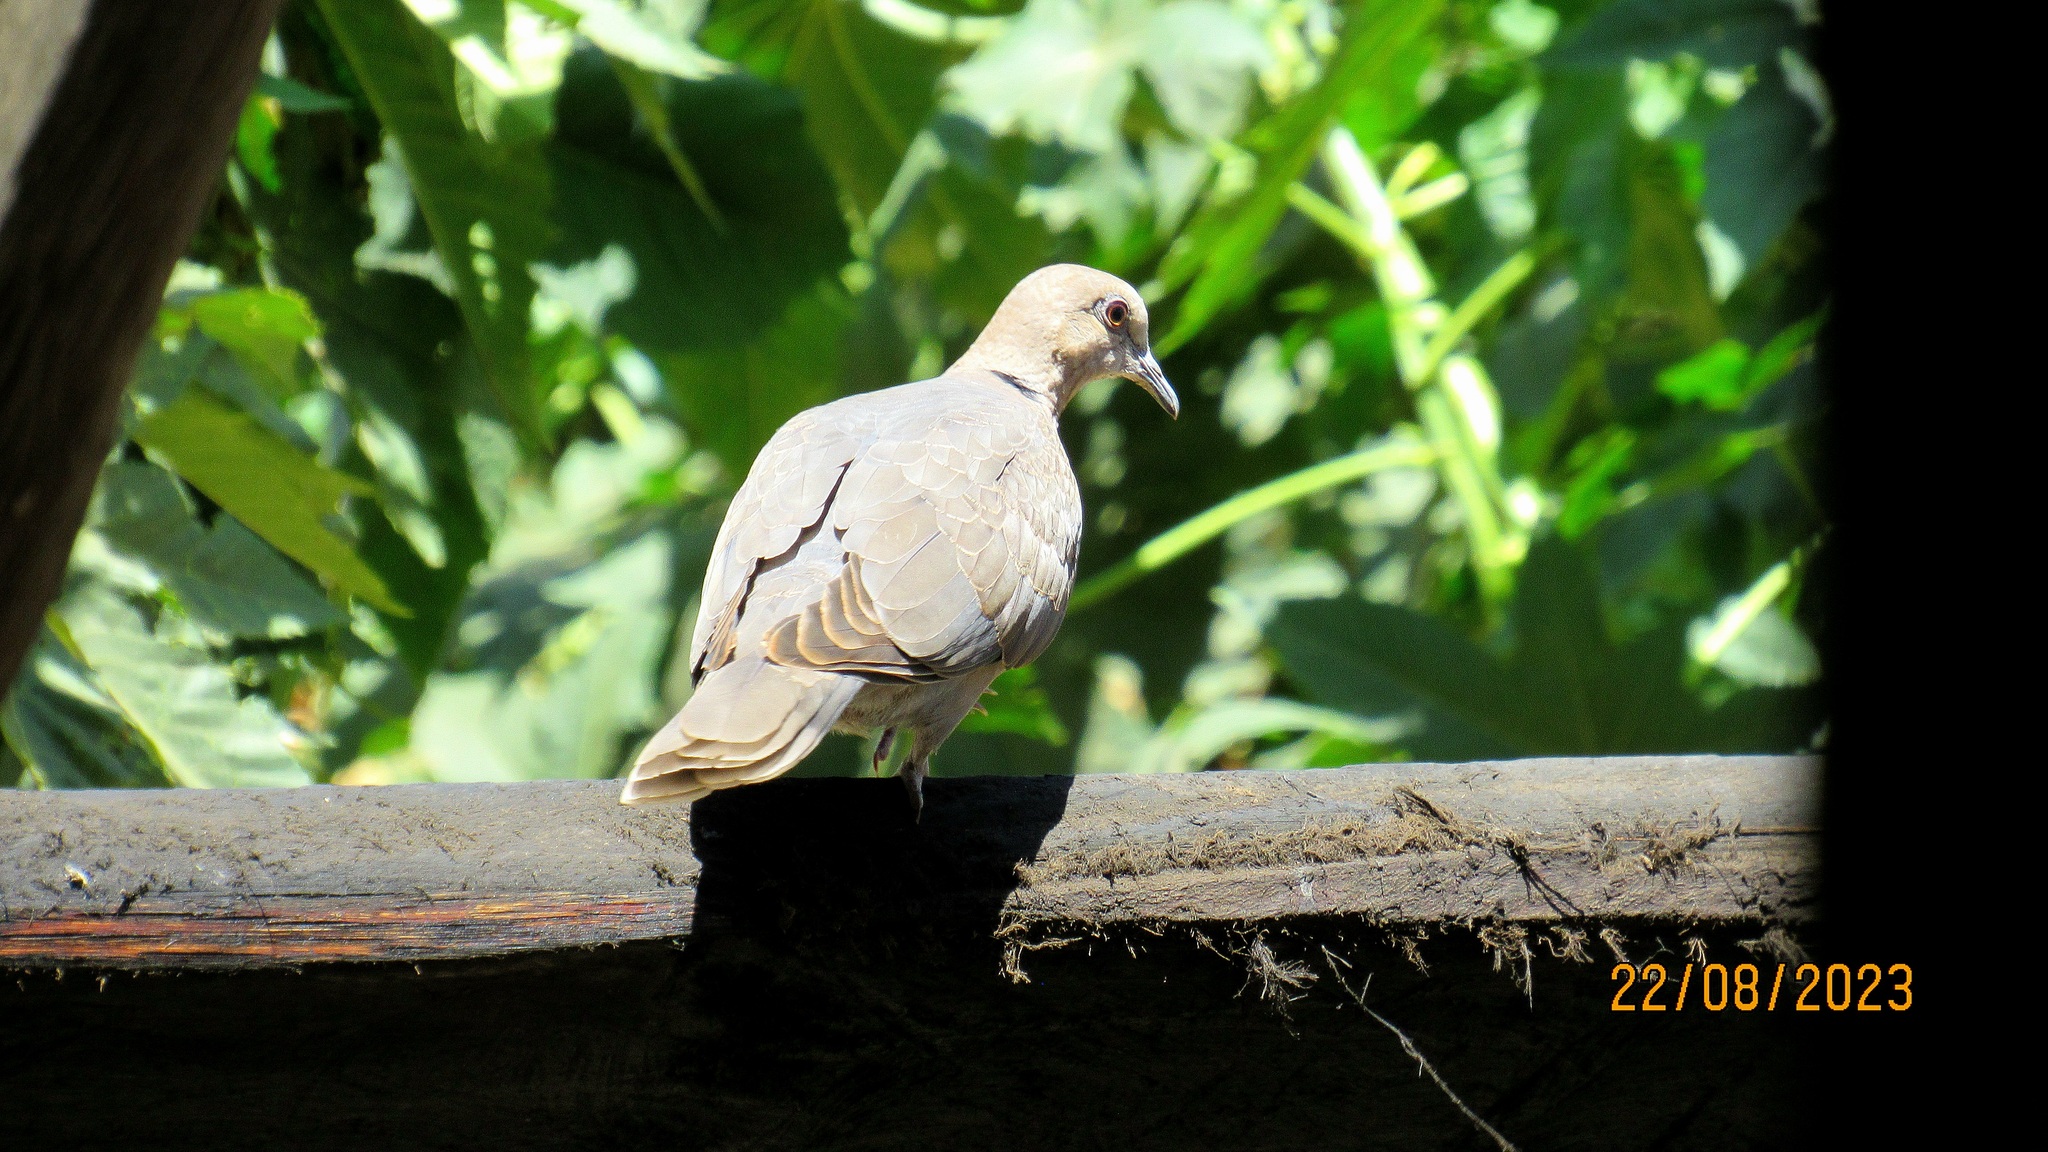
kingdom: Animalia
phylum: Chordata
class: Aves
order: Columbiformes
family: Columbidae
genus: Streptopelia
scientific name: Streptopelia semitorquata
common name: Red-eyed dove
